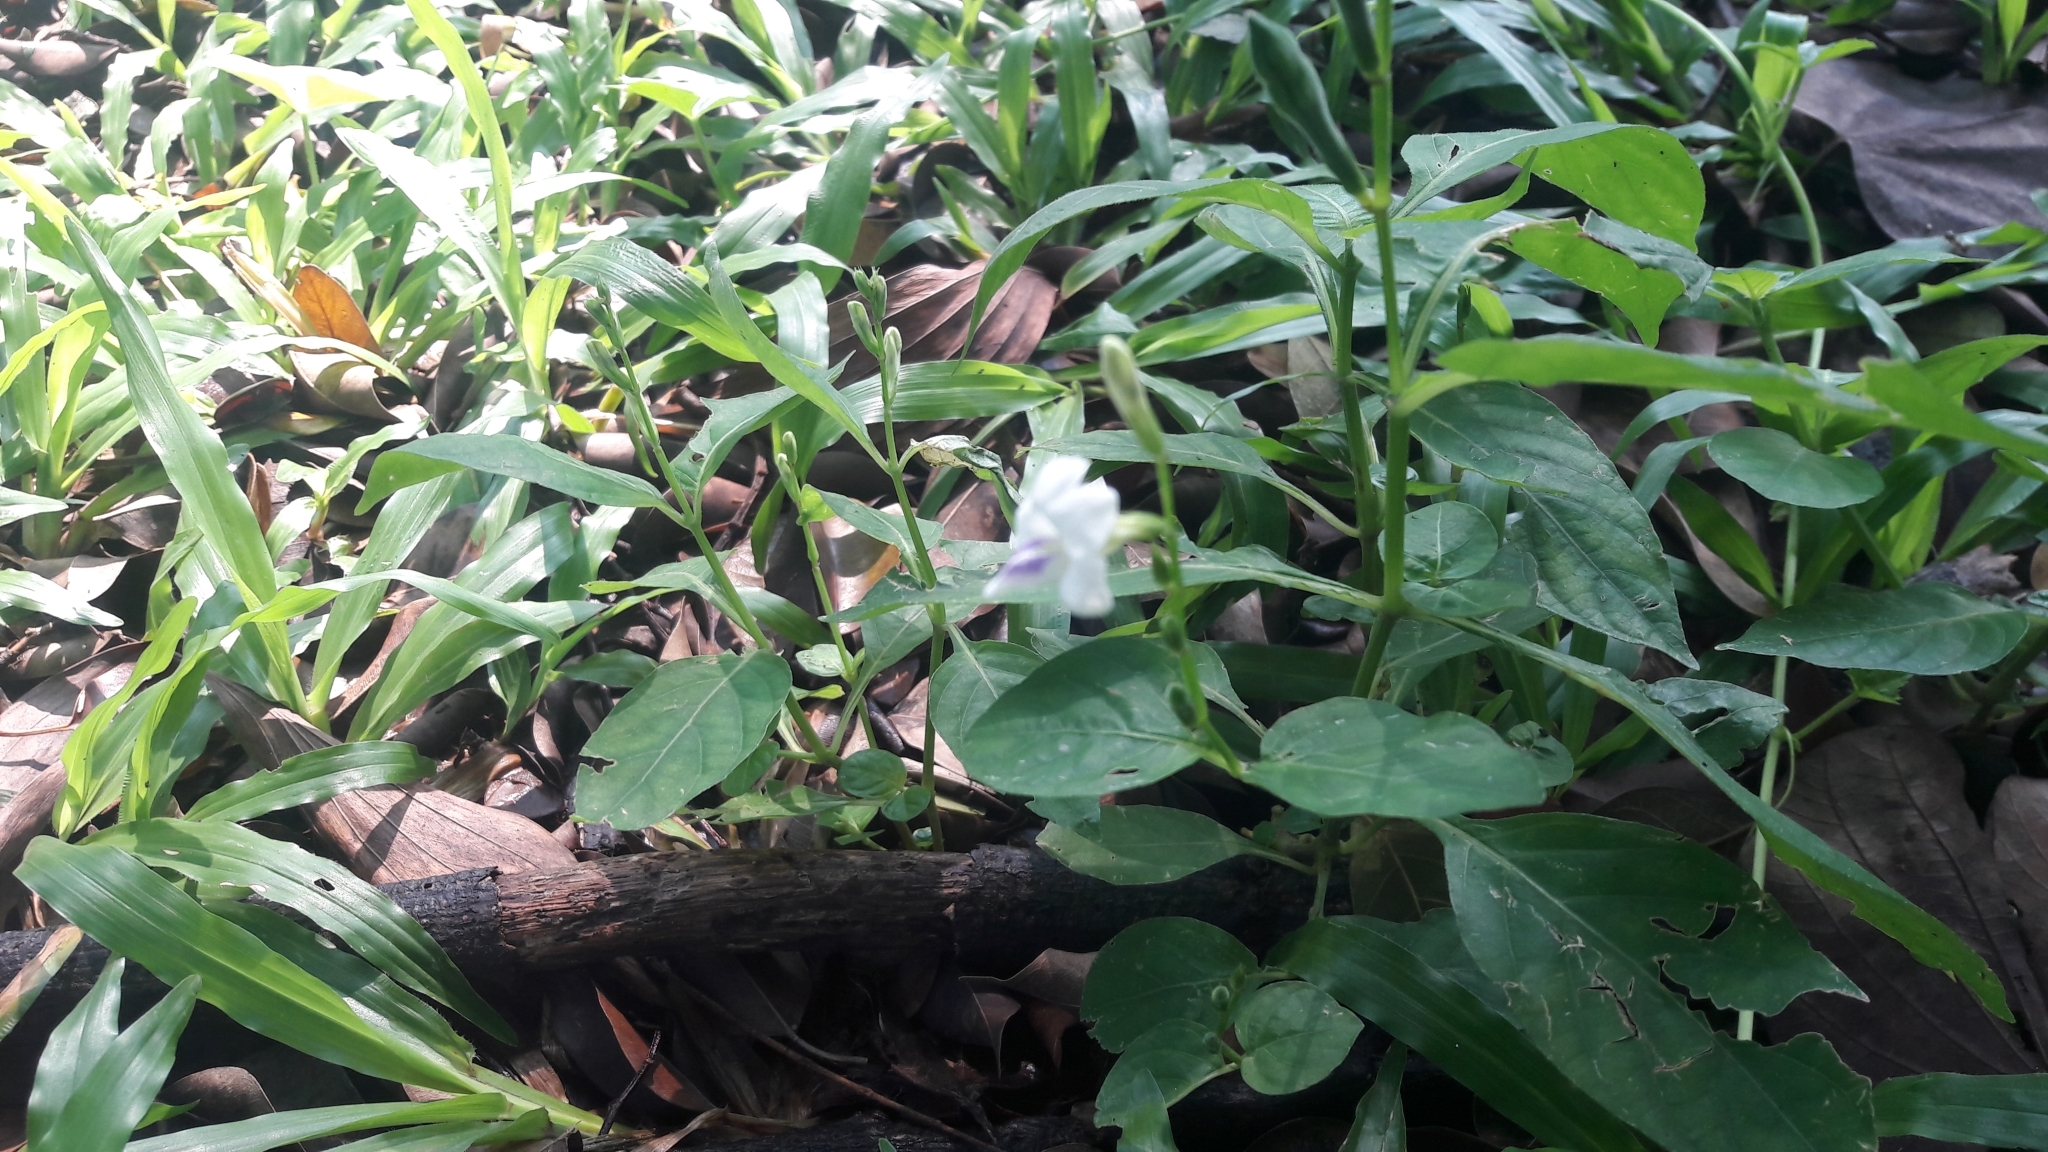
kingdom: Plantae
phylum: Tracheophyta
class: Magnoliopsida
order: Lamiales
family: Acanthaceae
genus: Asystasia
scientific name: Asystasia intrusa
